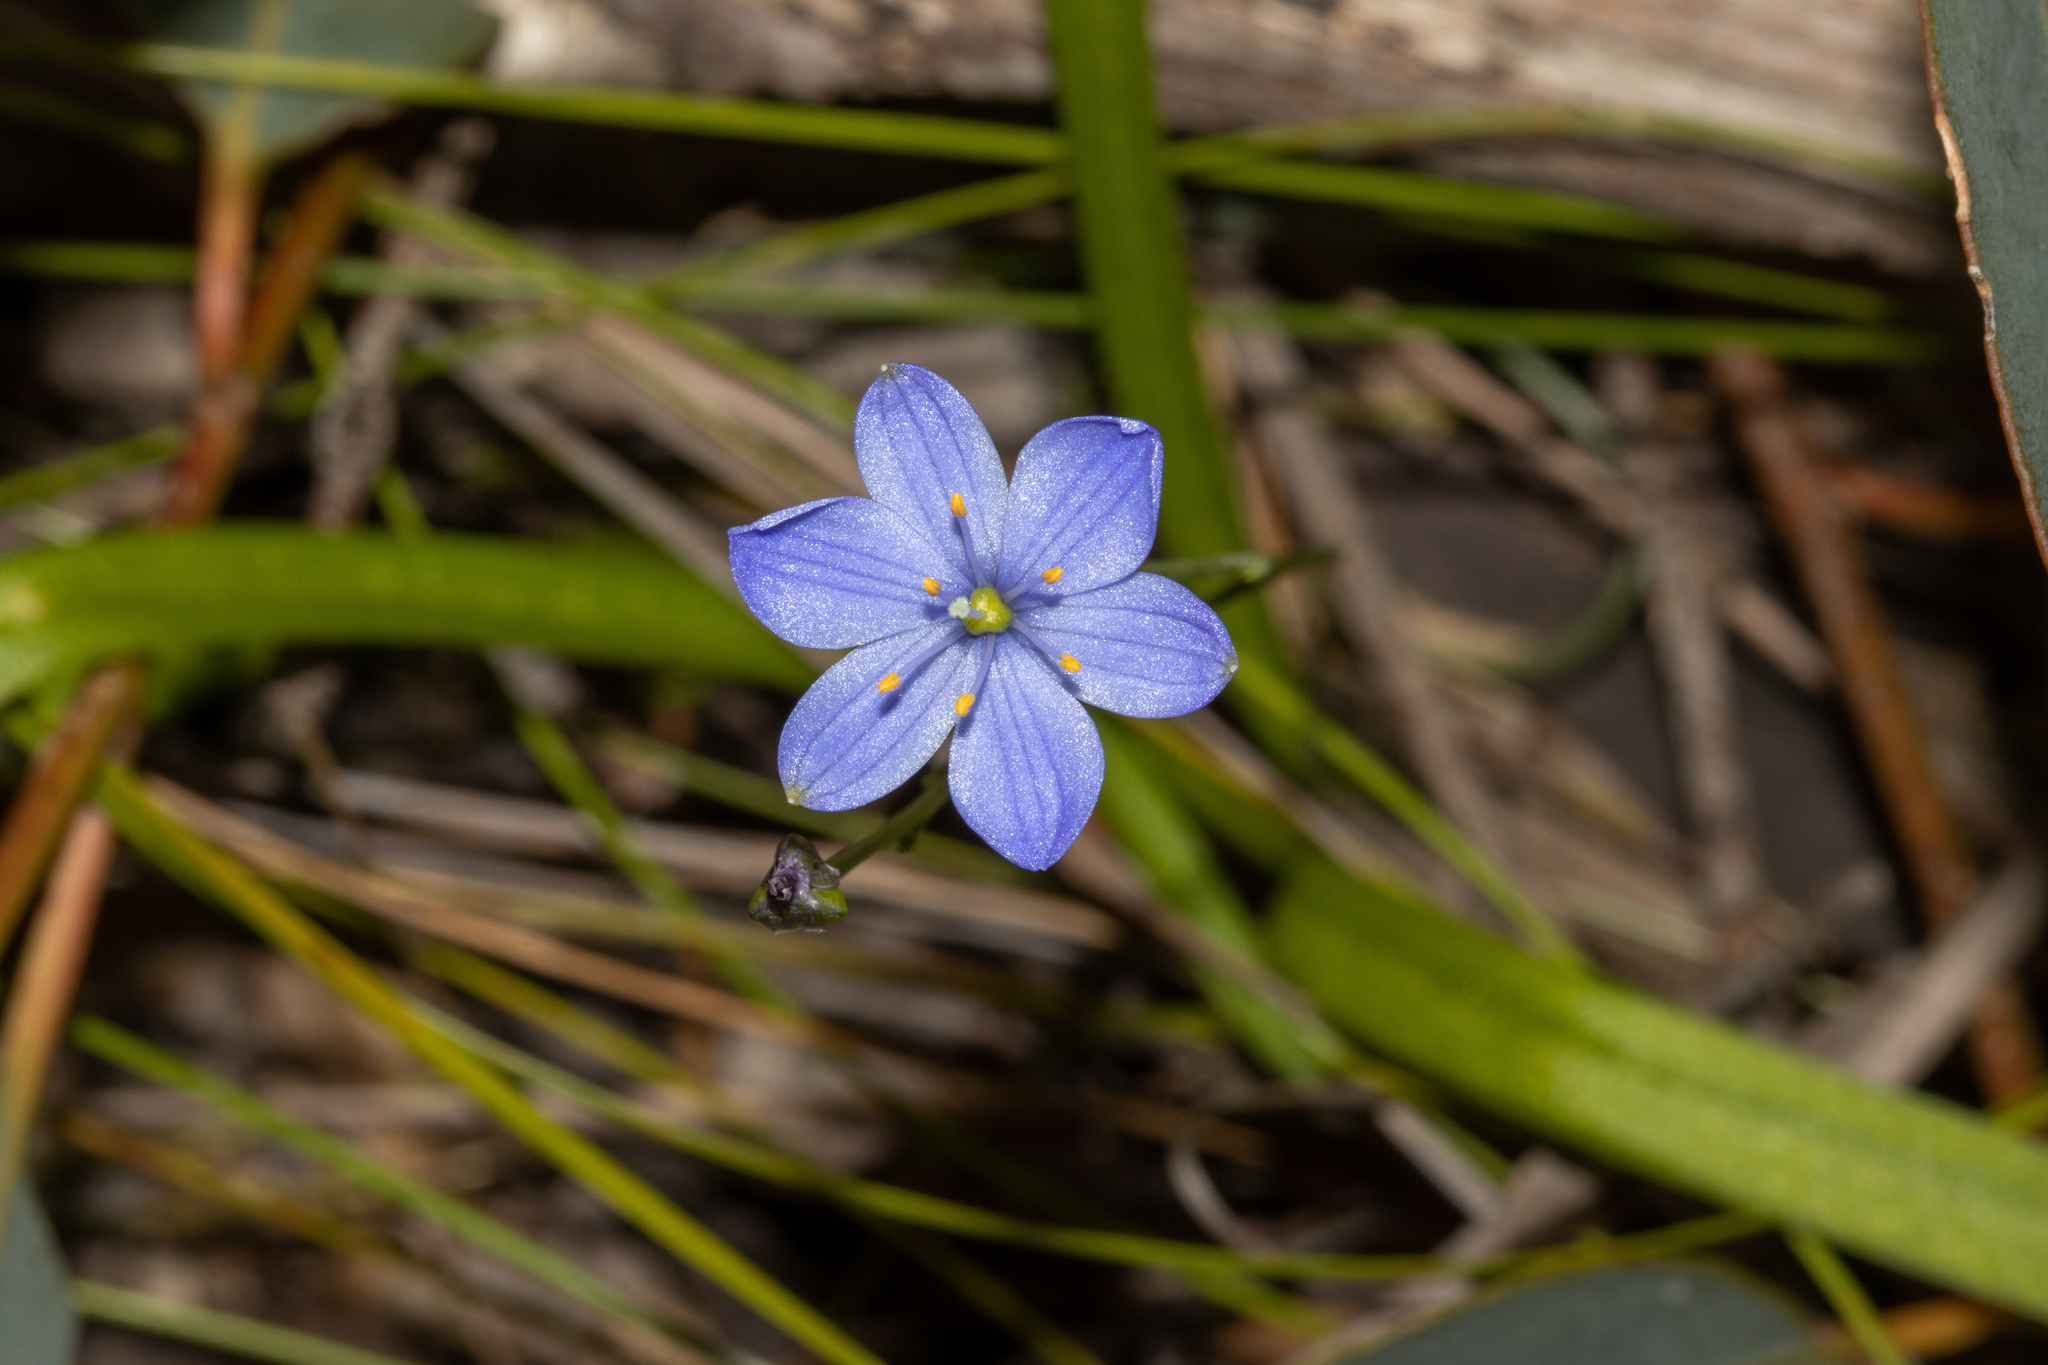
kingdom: Plantae
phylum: Tracheophyta
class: Liliopsida
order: Asparagales
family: Asphodelaceae
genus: Chamaescilla
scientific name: Chamaescilla corymbosa
